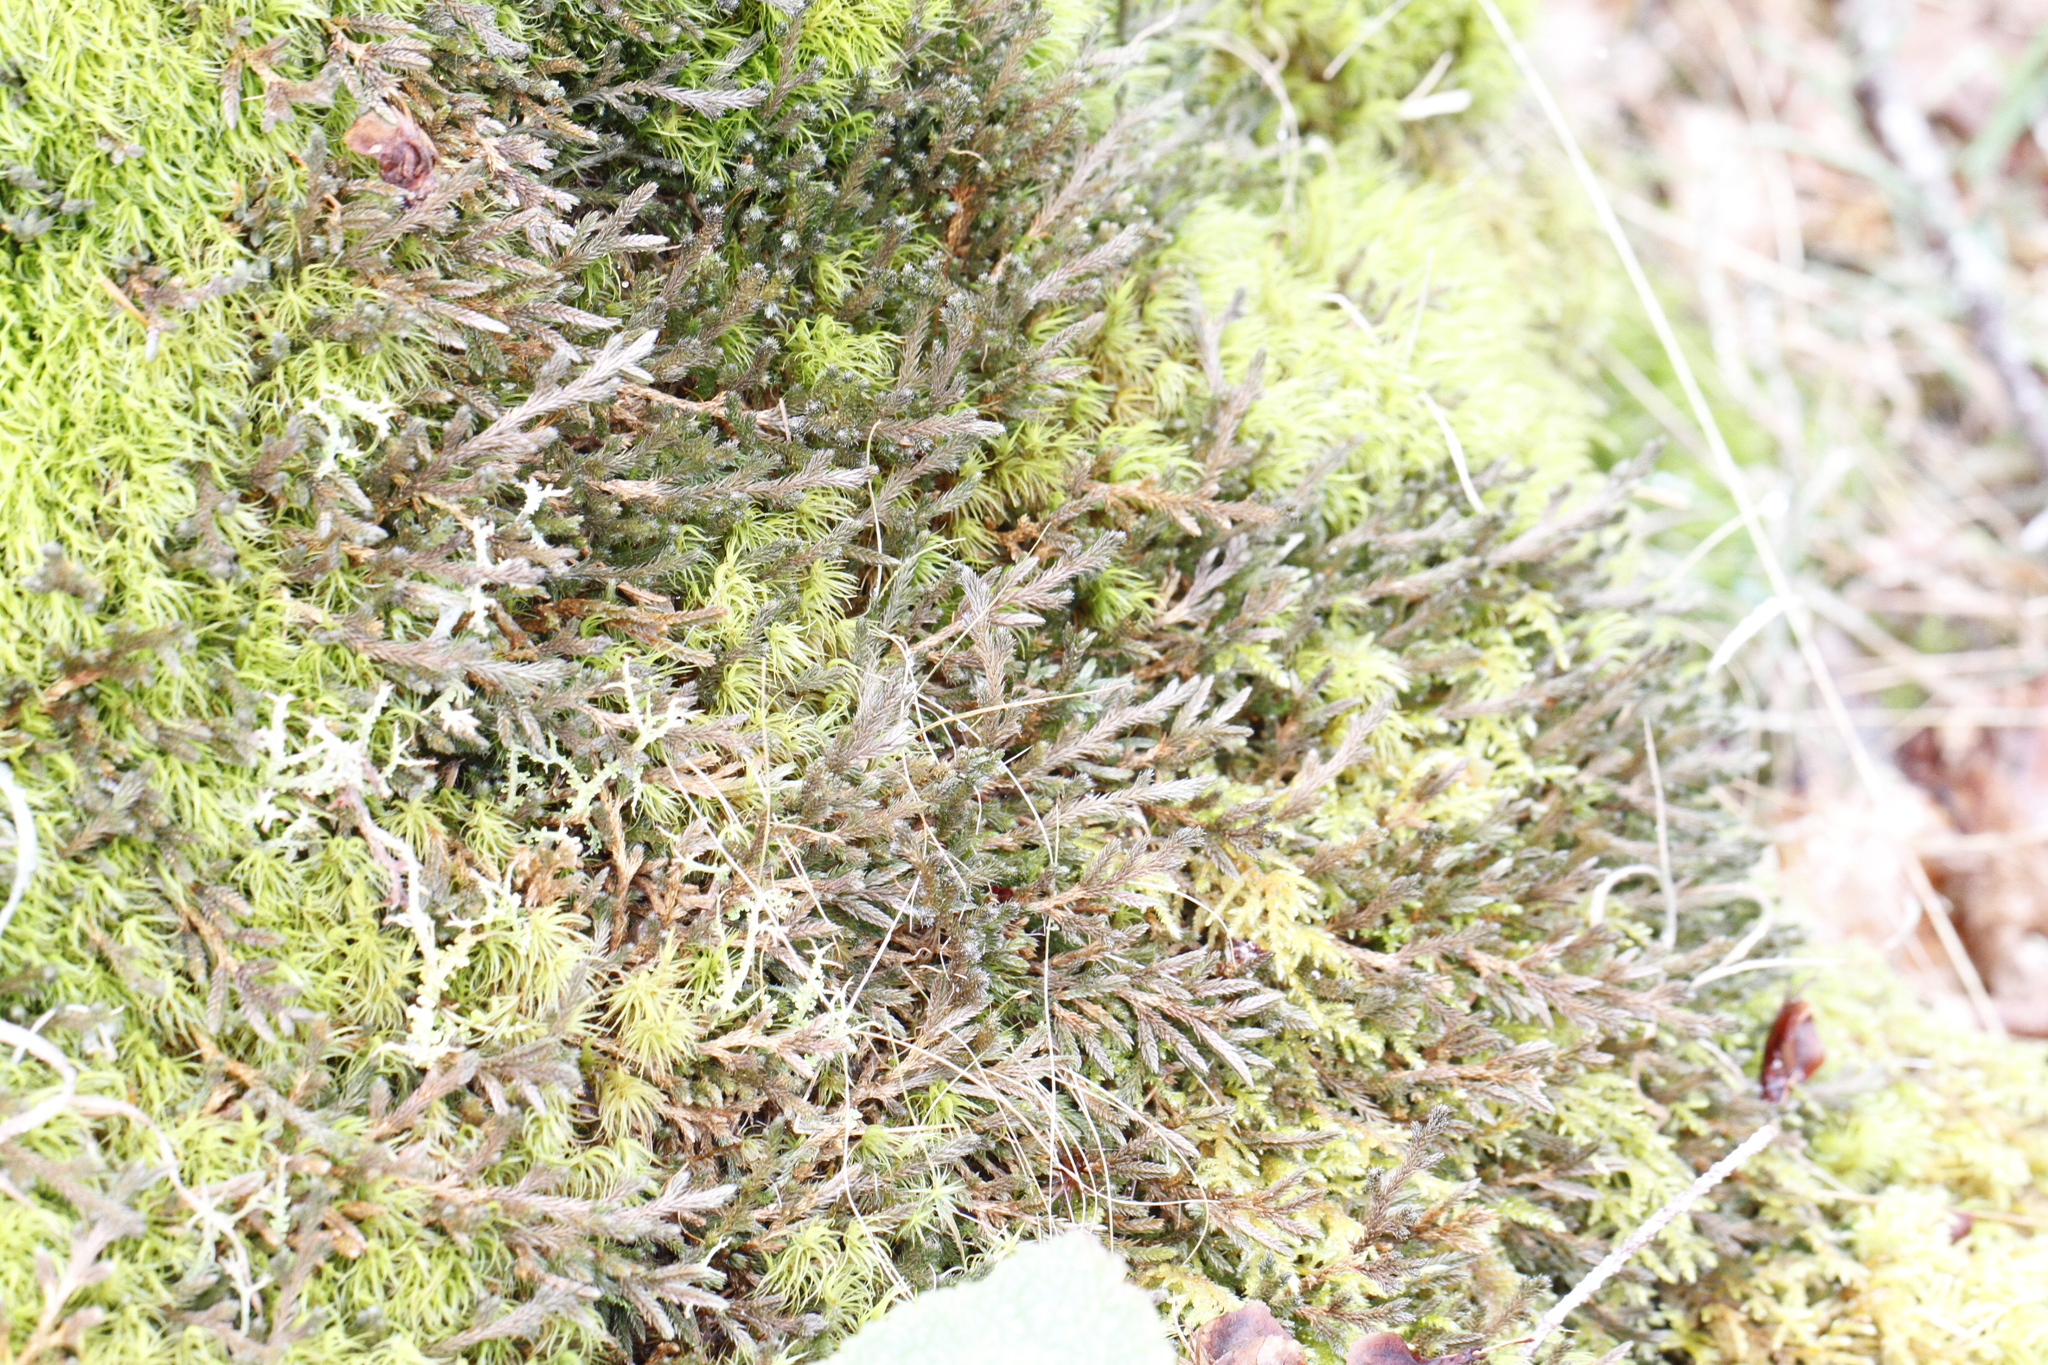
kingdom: Plantae
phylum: Tracheophyta
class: Lycopodiopsida
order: Selaginellales
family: Selaginellaceae
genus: Selaginella
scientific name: Selaginella wallacei
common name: Wallace's selaginella
